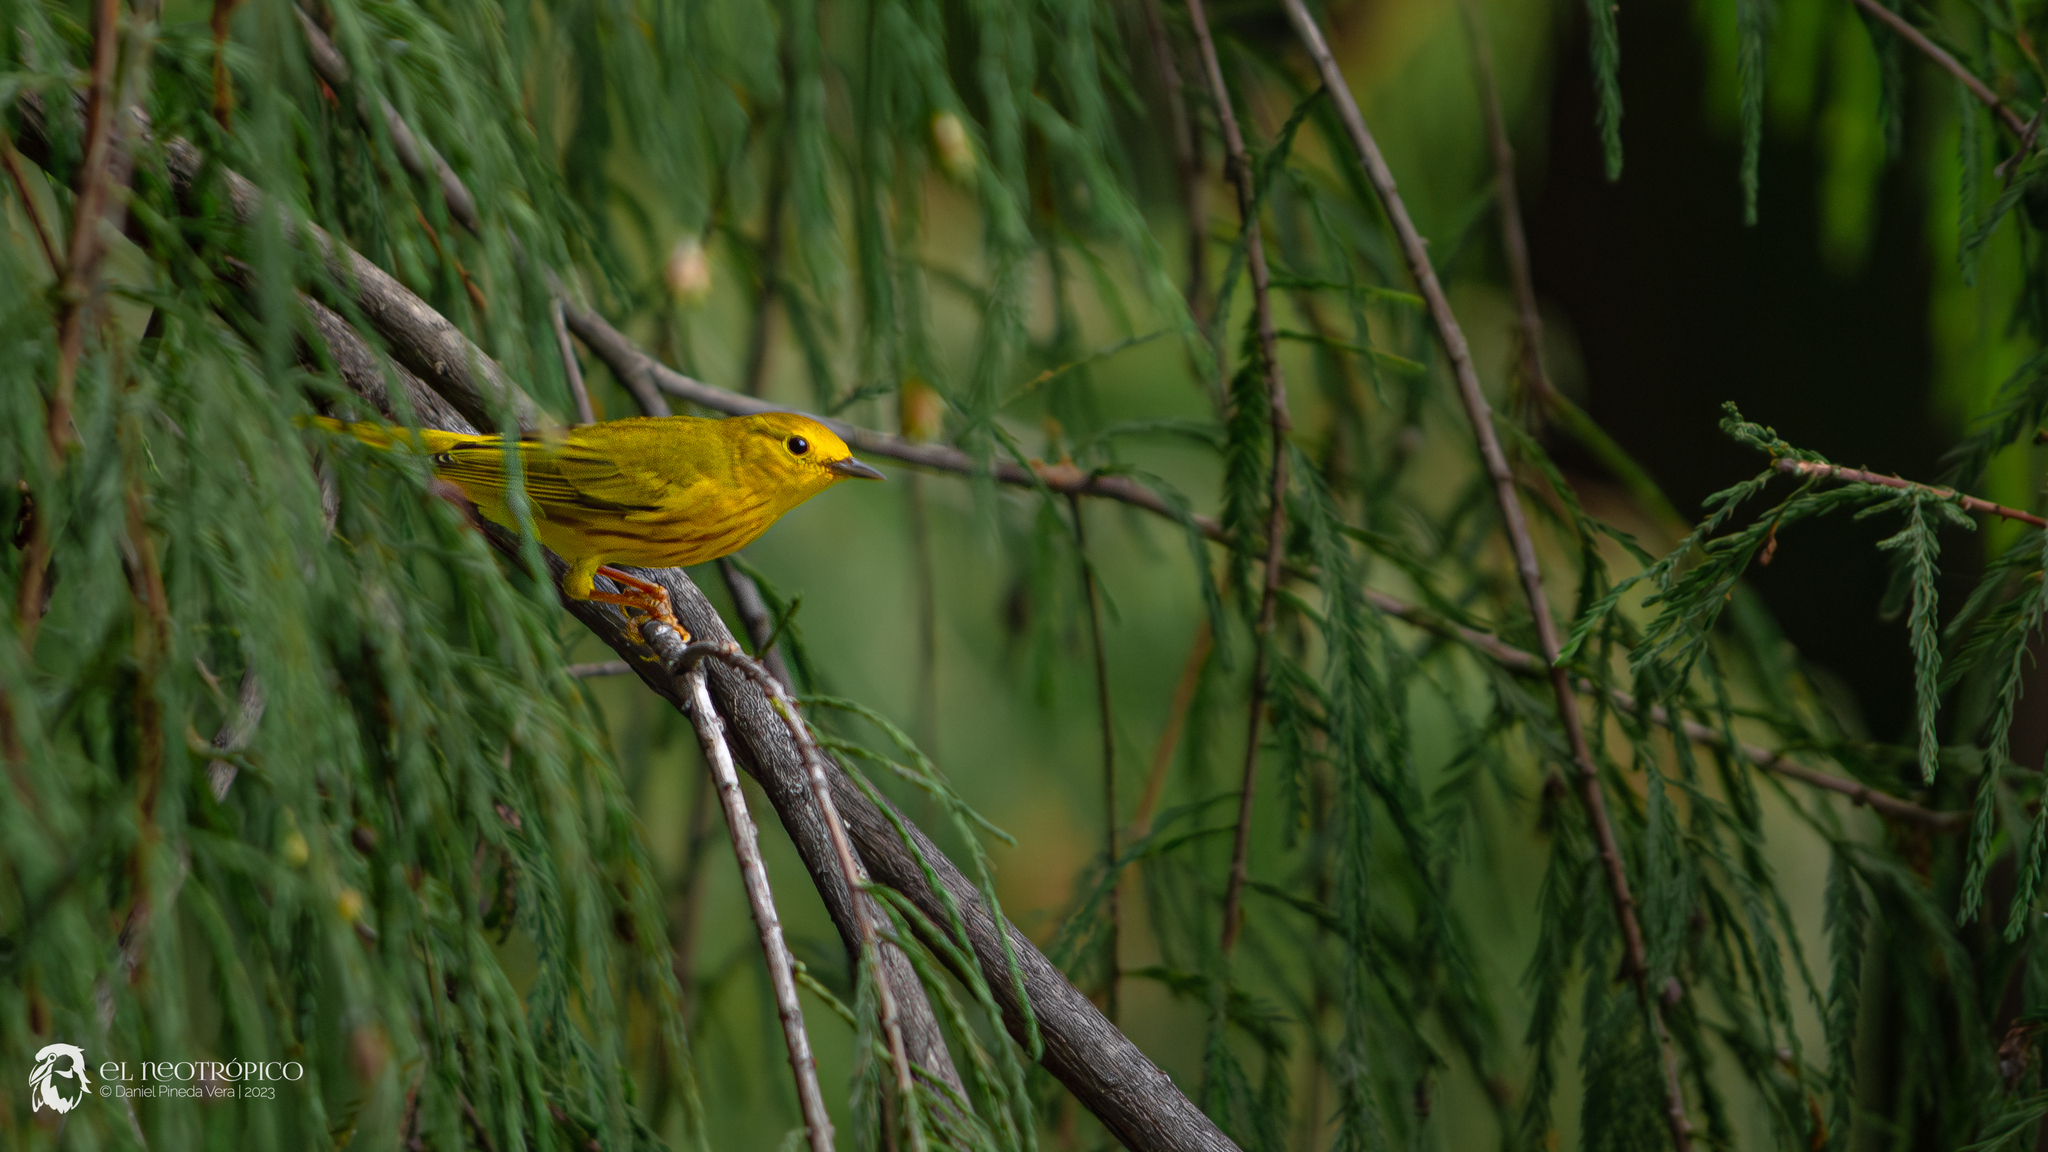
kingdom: Animalia
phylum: Chordata
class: Aves
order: Passeriformes
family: Parulidae
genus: Setophaga
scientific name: Setophaga petechia
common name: Yellow warbler
